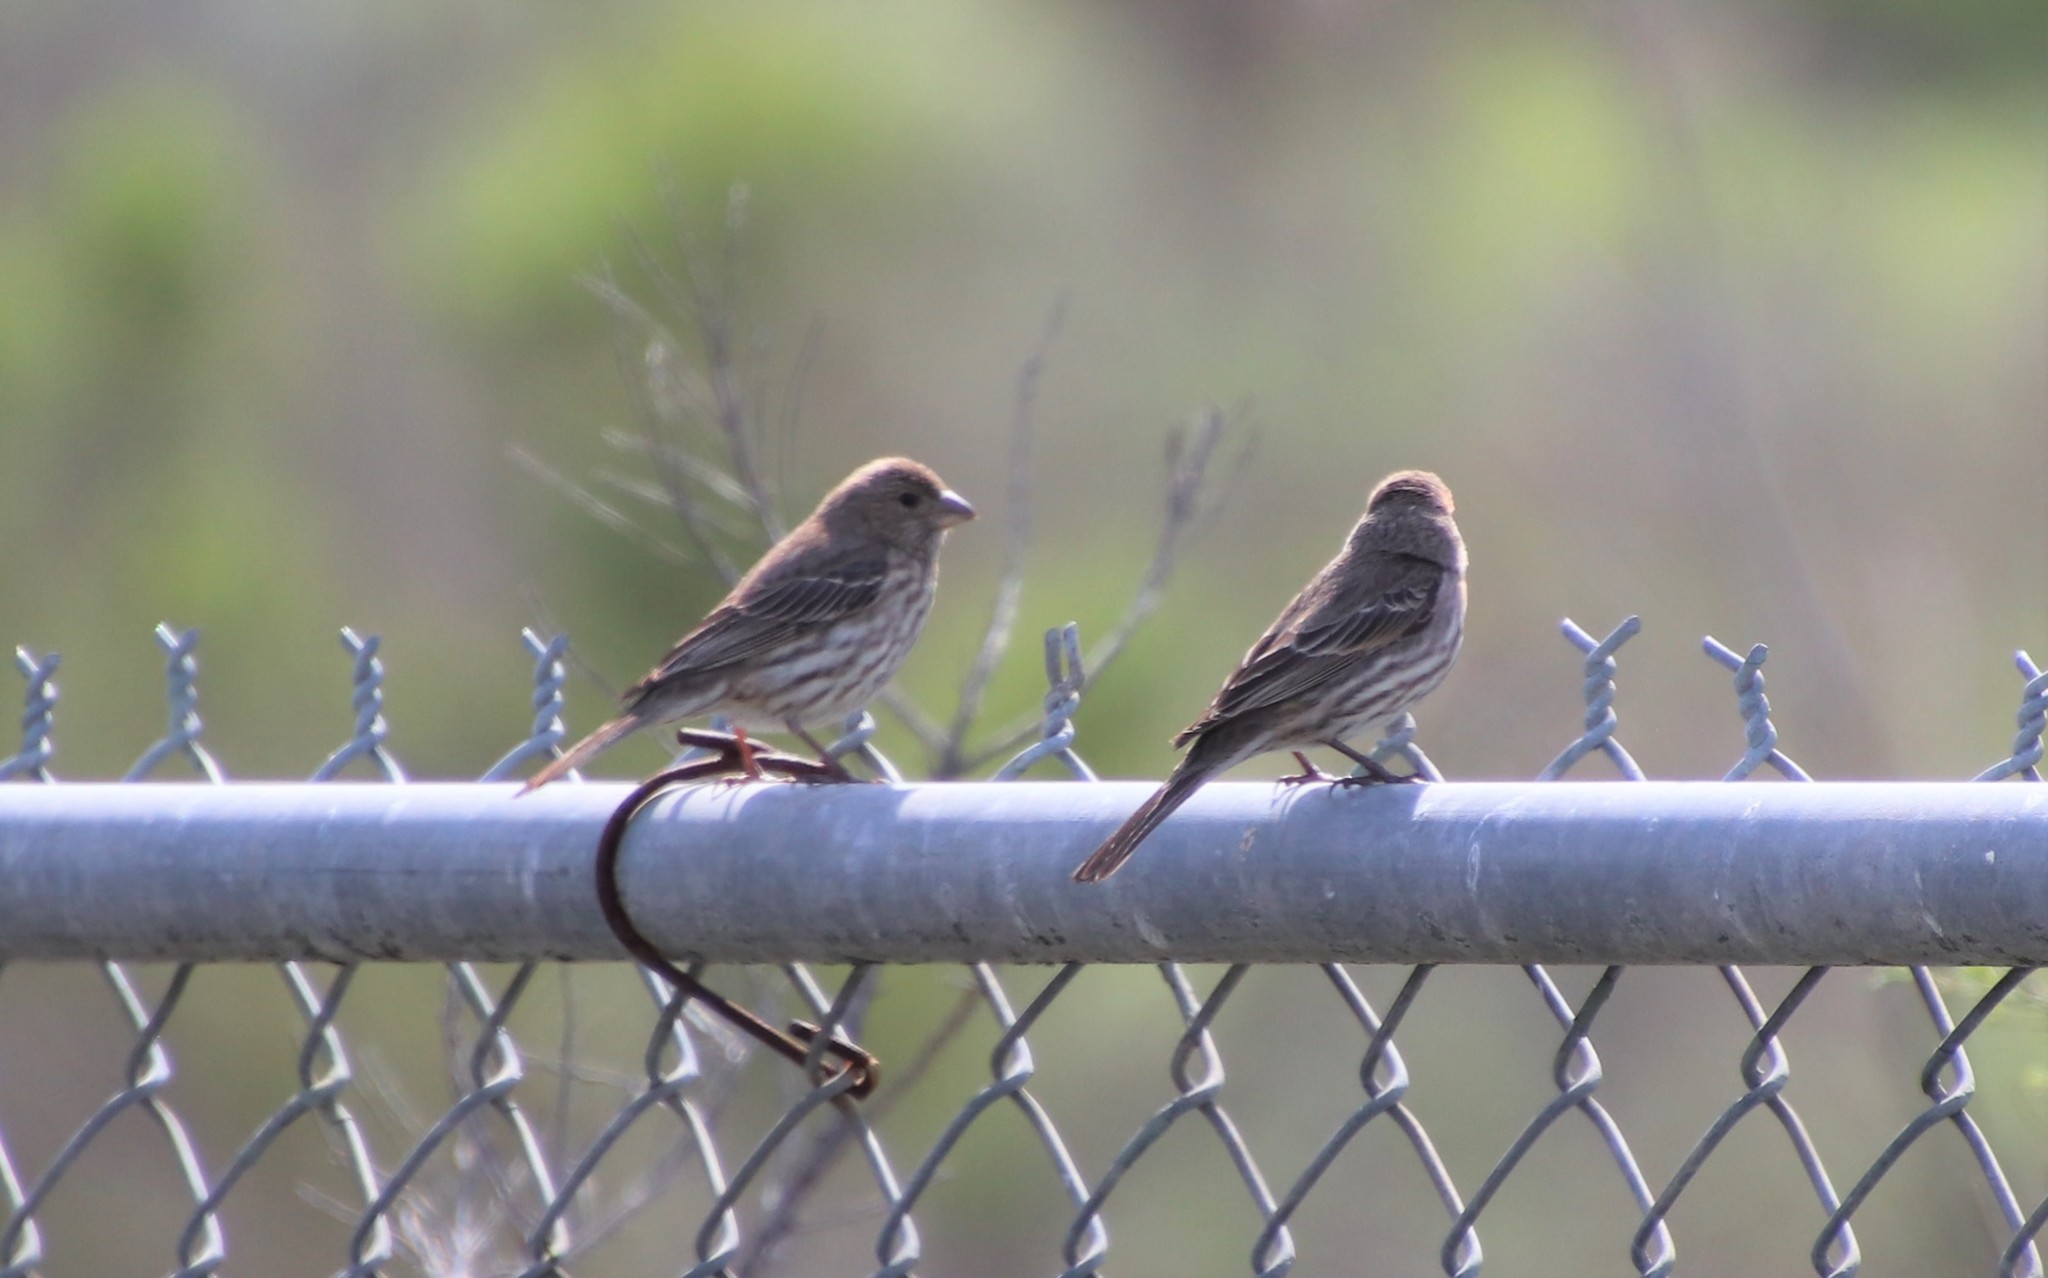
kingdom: Animalia
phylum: Chordata
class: Aves
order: Passeriformes
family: Fringillidae
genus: Haemorhous
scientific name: Haemorhous mexicanus
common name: House finch
